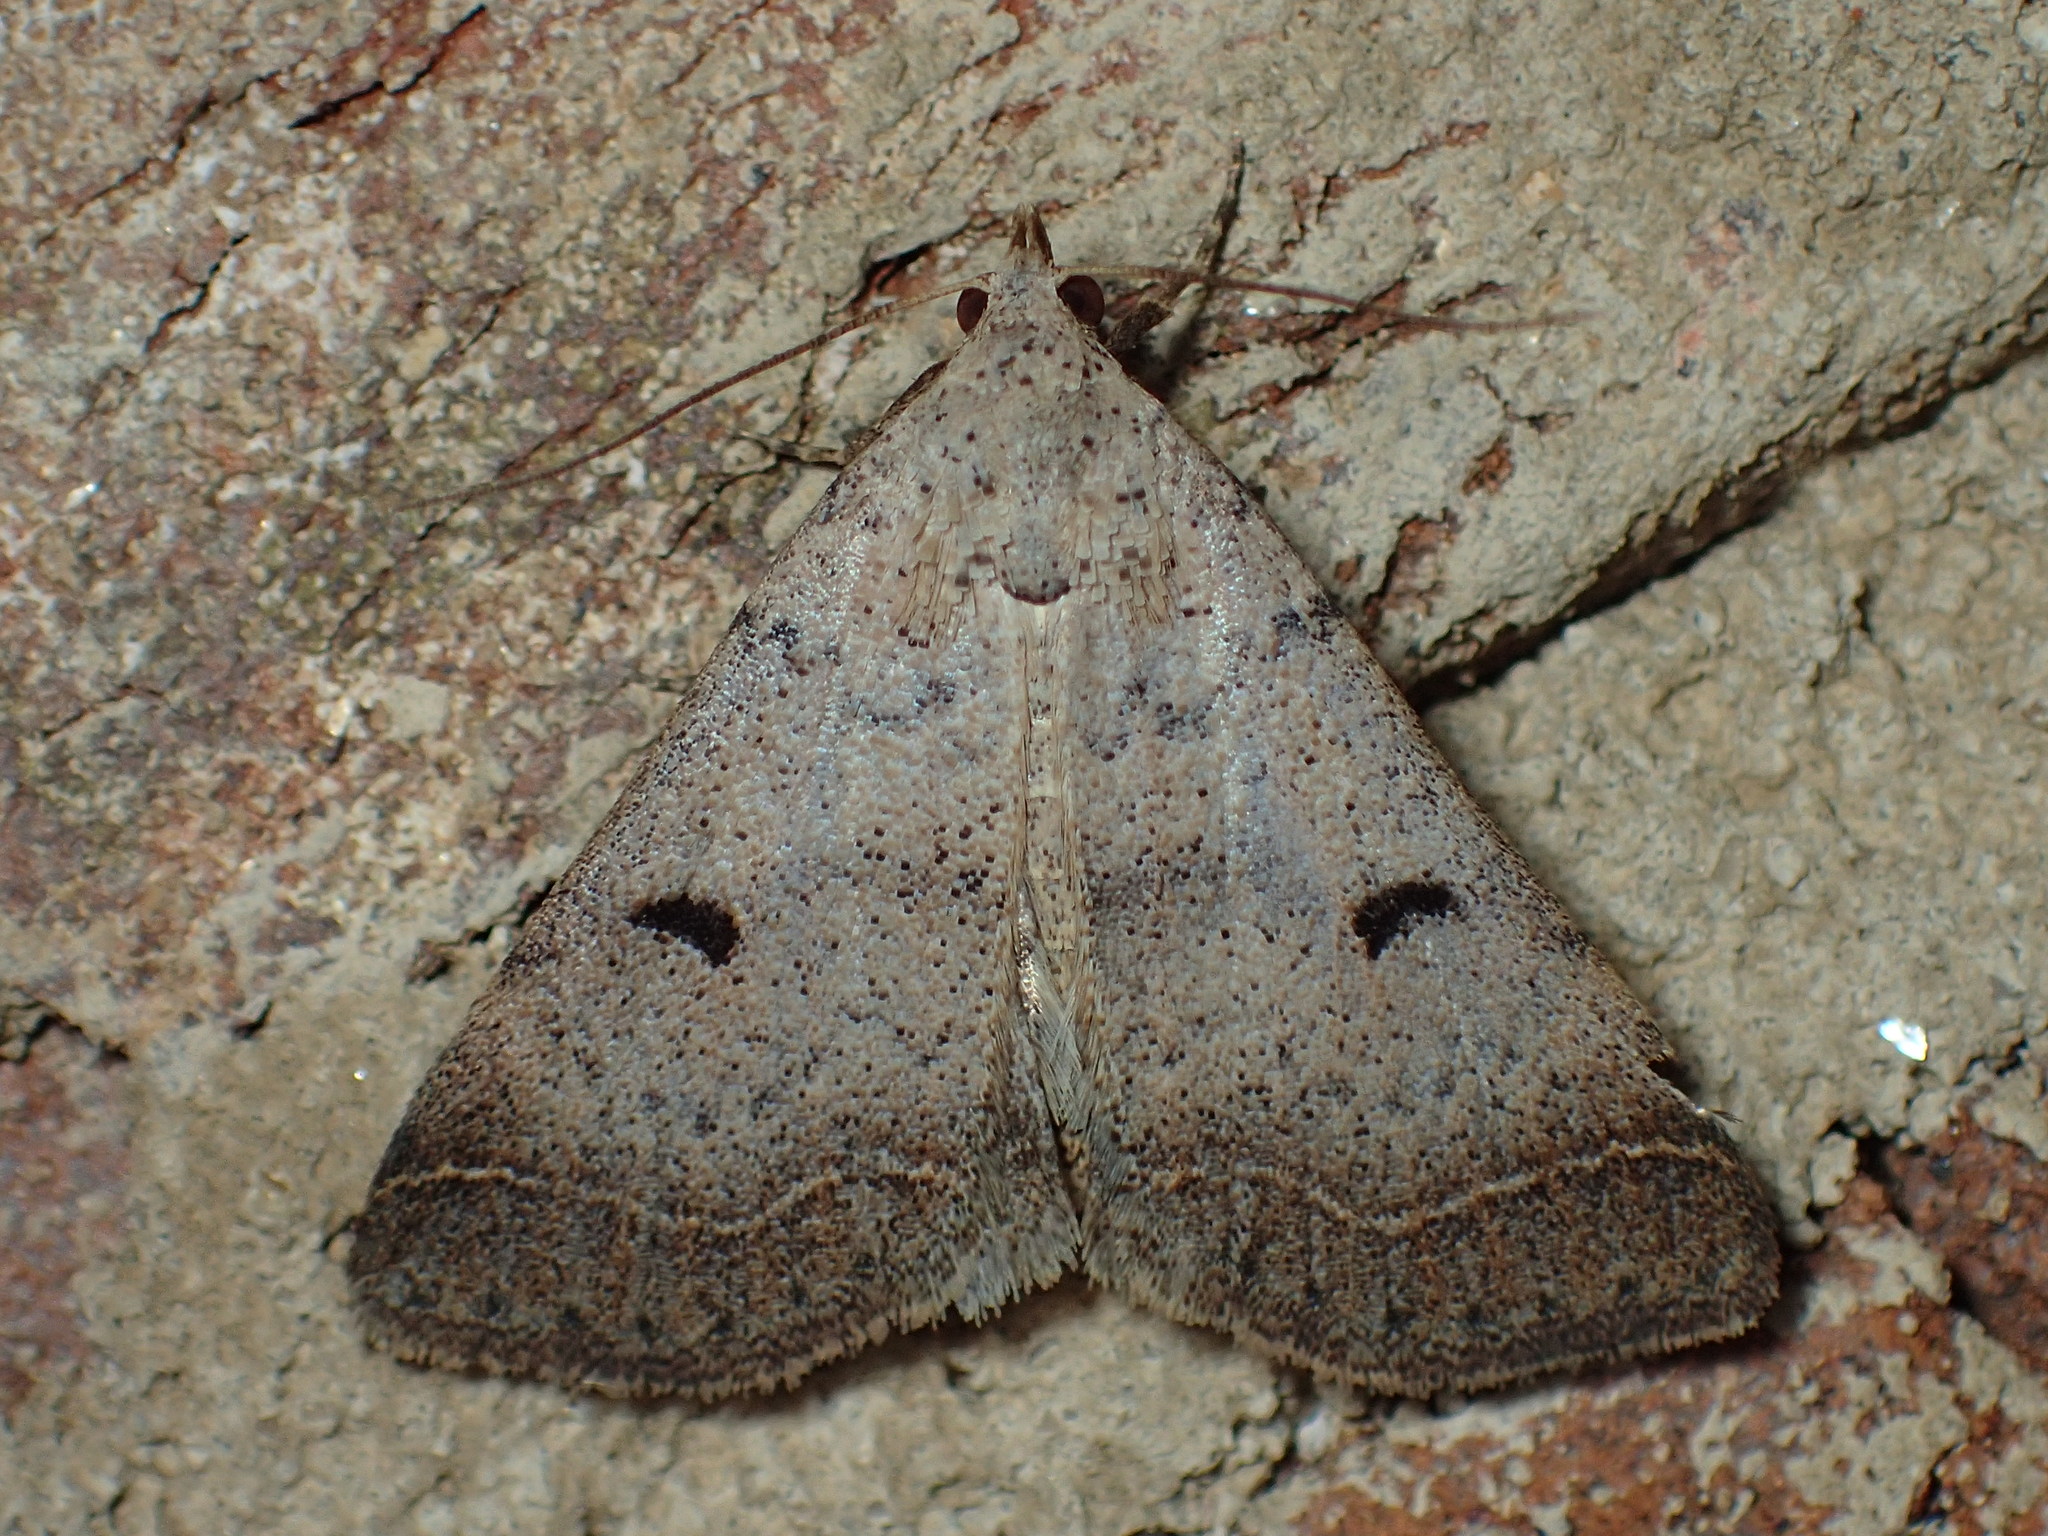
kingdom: Animalia
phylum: Arthropoda
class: Insecta
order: Lepidoptera
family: Erebidae
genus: Bleptina
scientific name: Bleptina caradrinalis
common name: Bent-winged owlet
